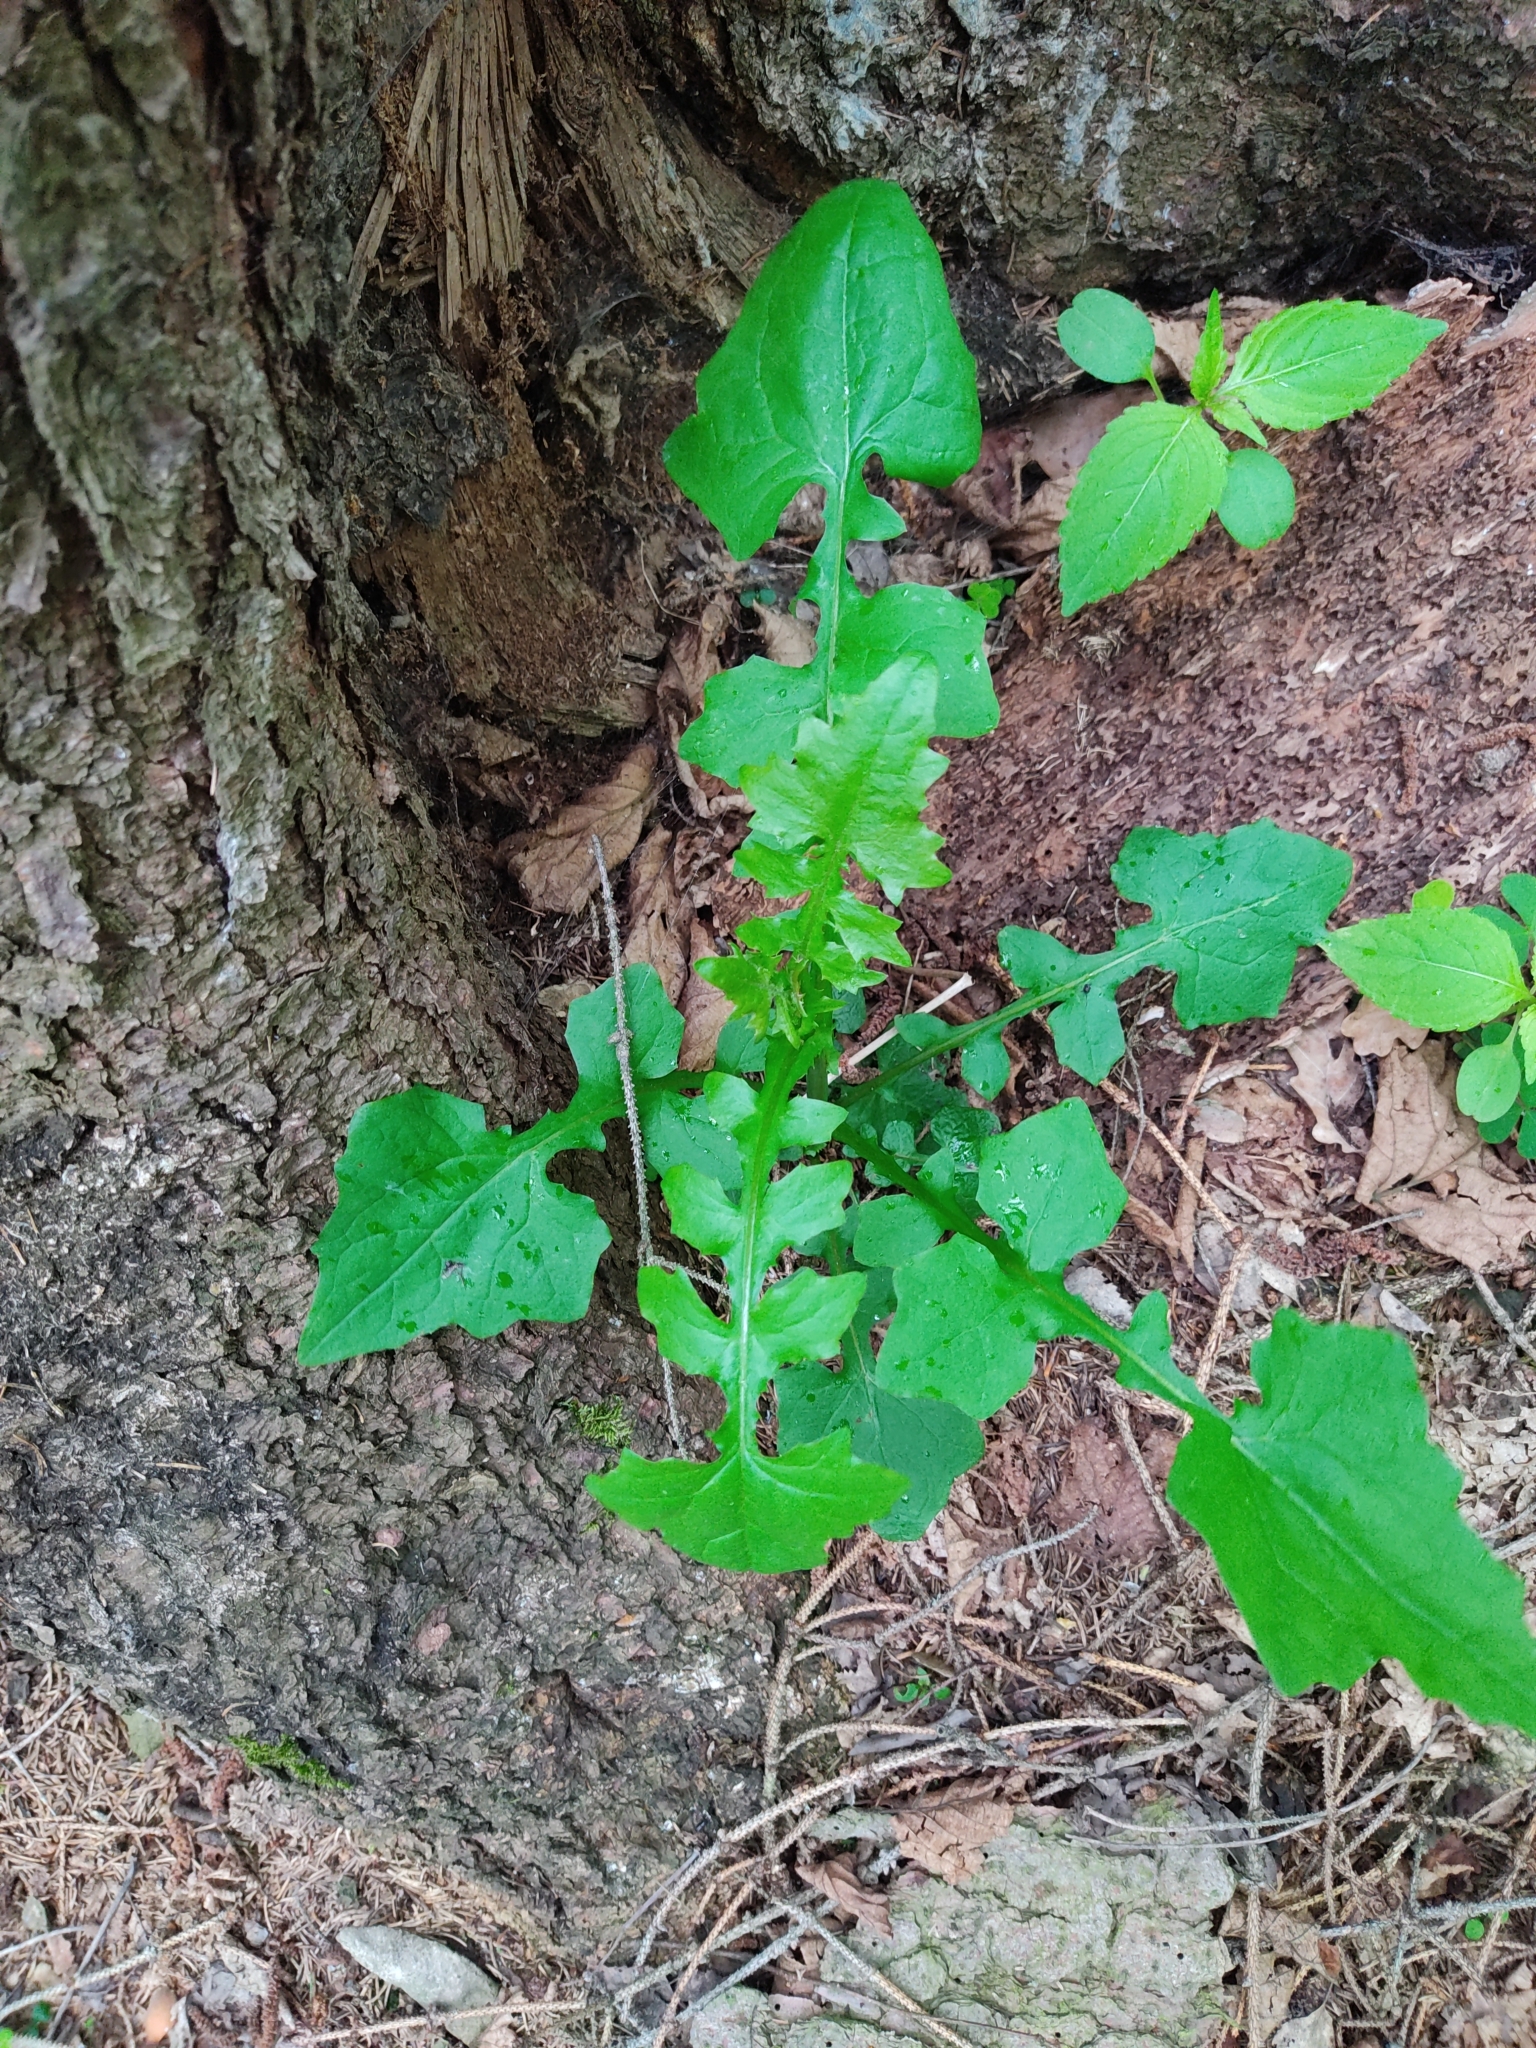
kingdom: Plantae
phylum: Tracheophyta
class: Magnoliopsida
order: Asterales
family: Asteraceae
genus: Mycelis
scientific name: Mycelis muralis
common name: Wall lettuce
